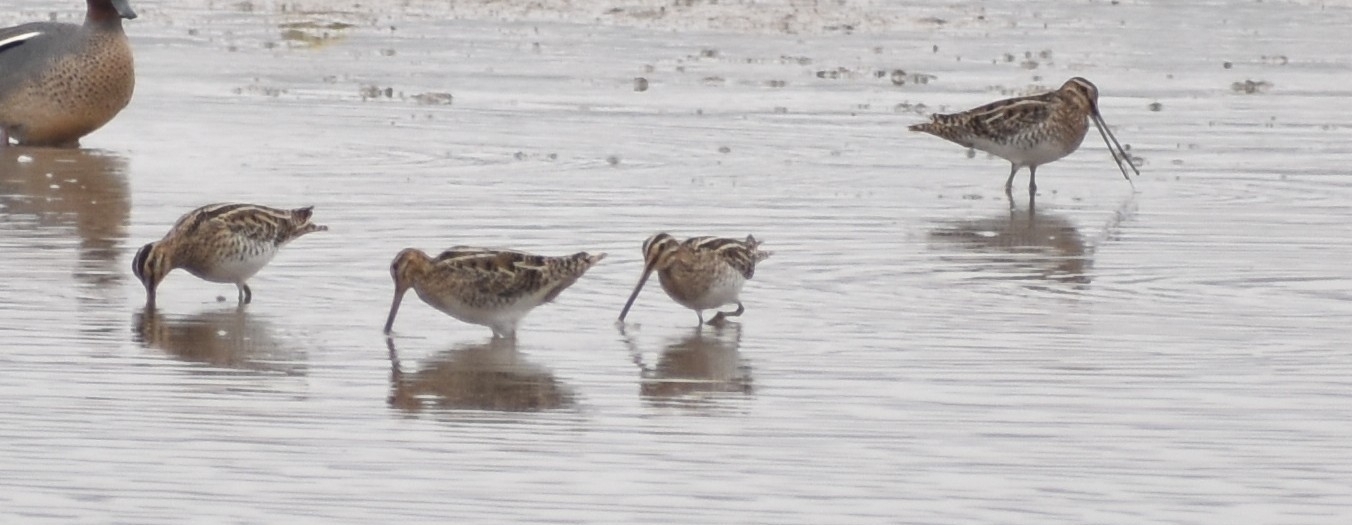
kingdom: Animalia
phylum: Chordata
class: Aves
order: Charadriiformes
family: Scolopacidae
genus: Gallinago
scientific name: Gallinago gallinago
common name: Common snipe
